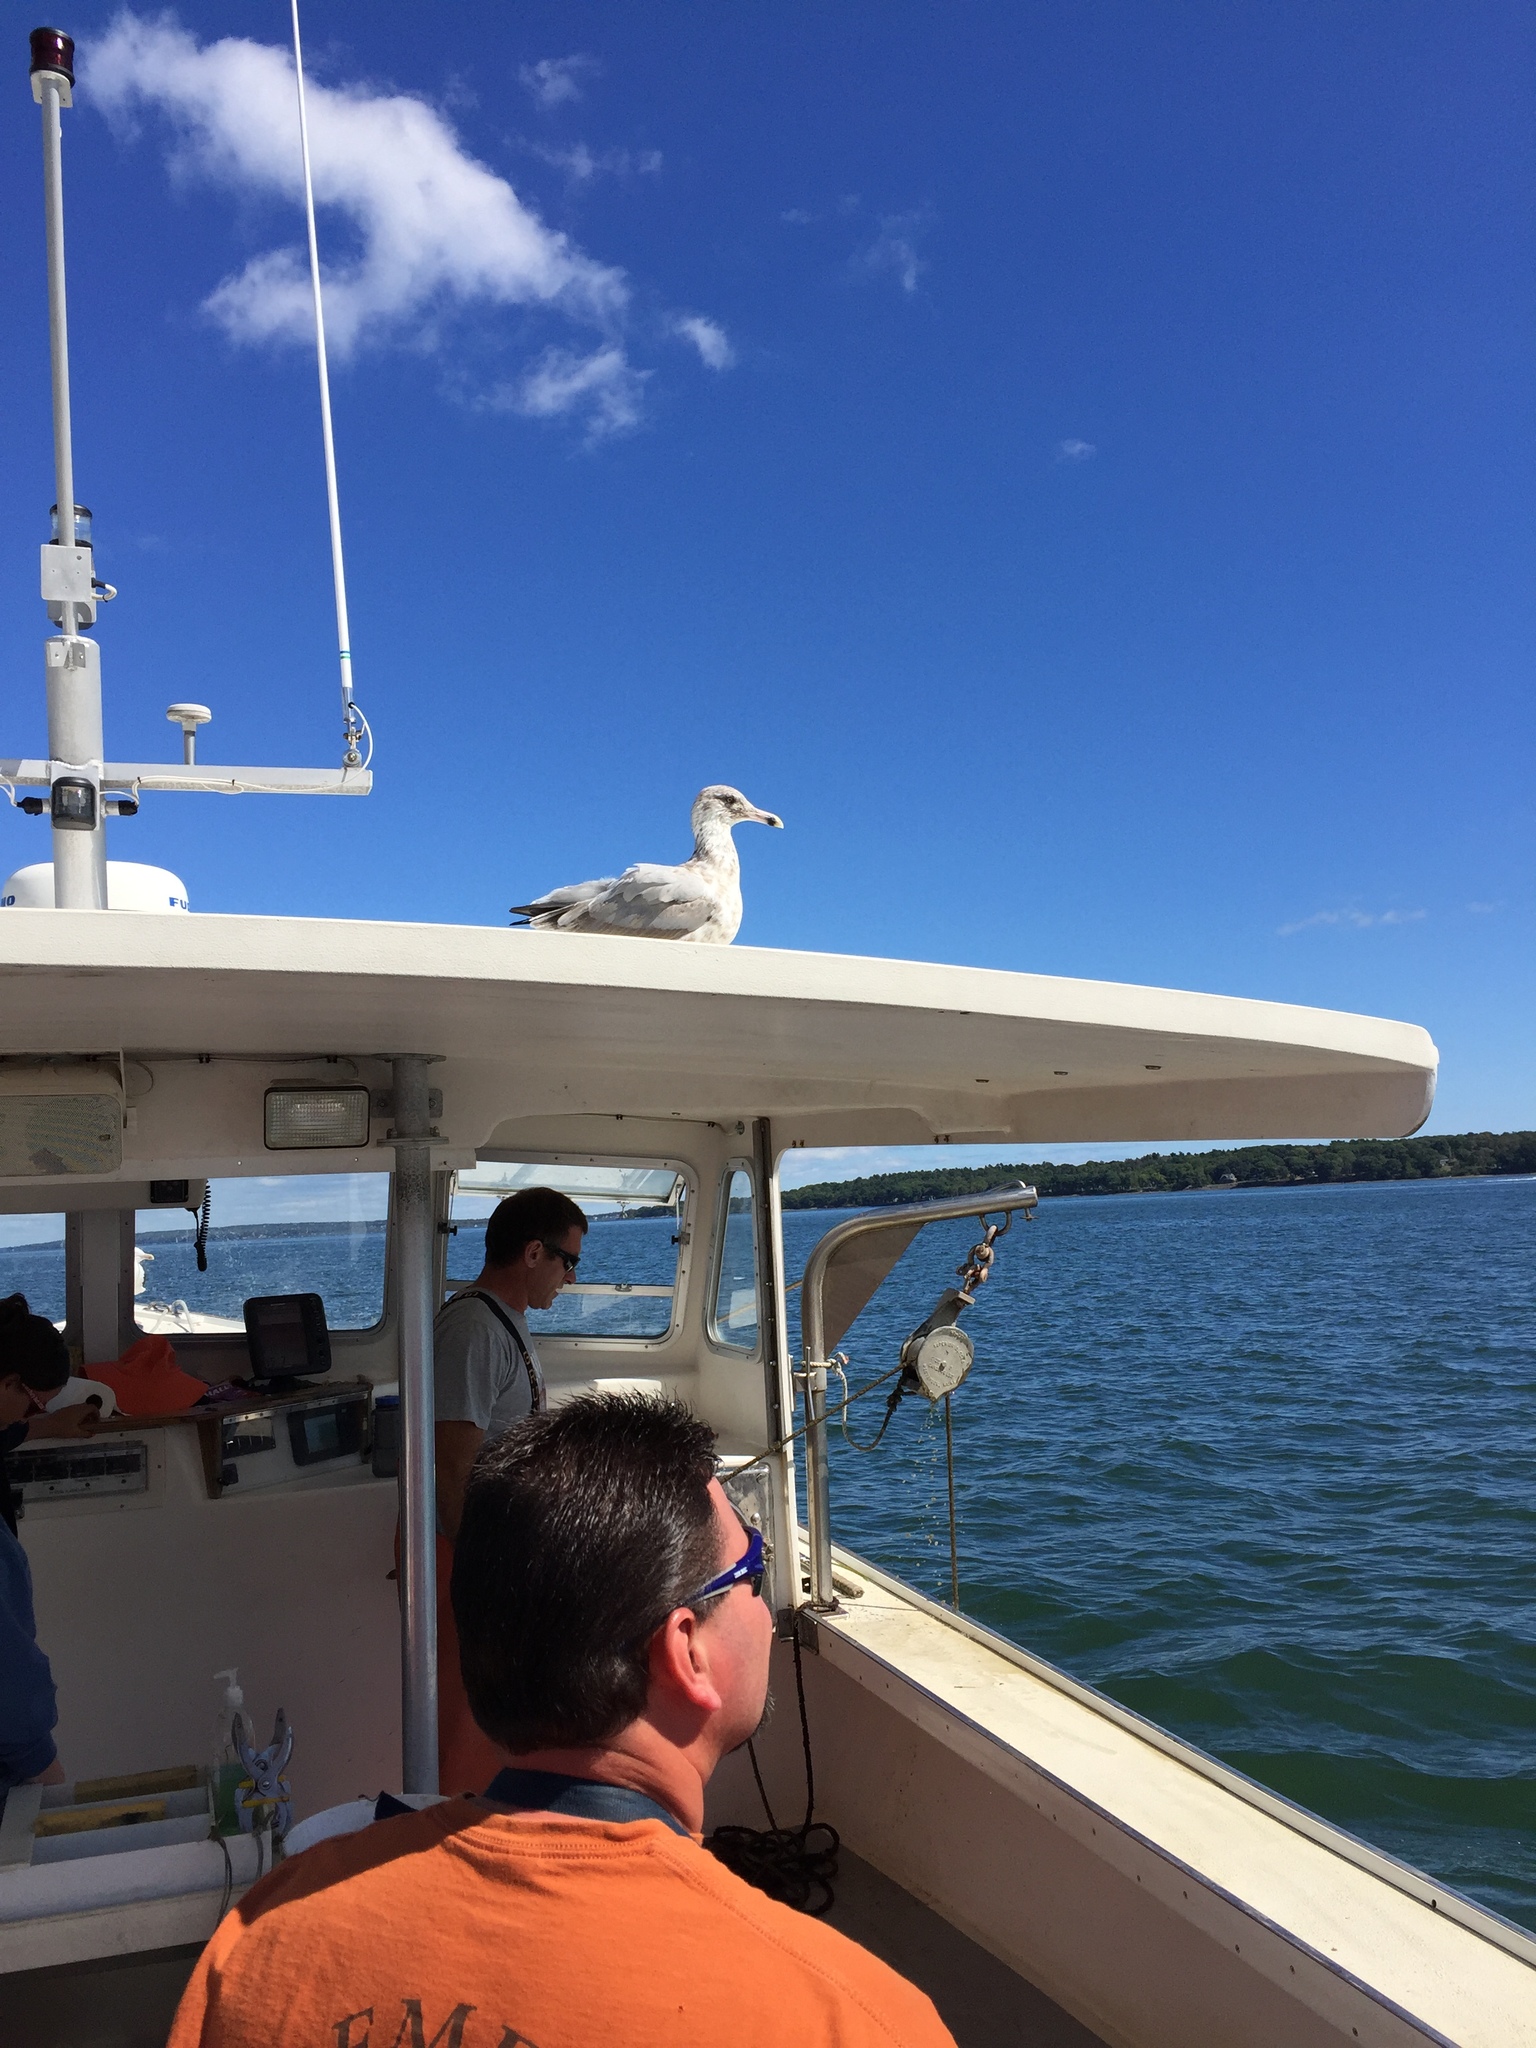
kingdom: Animalia
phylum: Chordata
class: Aves
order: Charadriiformes
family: Laridae
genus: Larus
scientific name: Larus argentatus
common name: Herring gull
